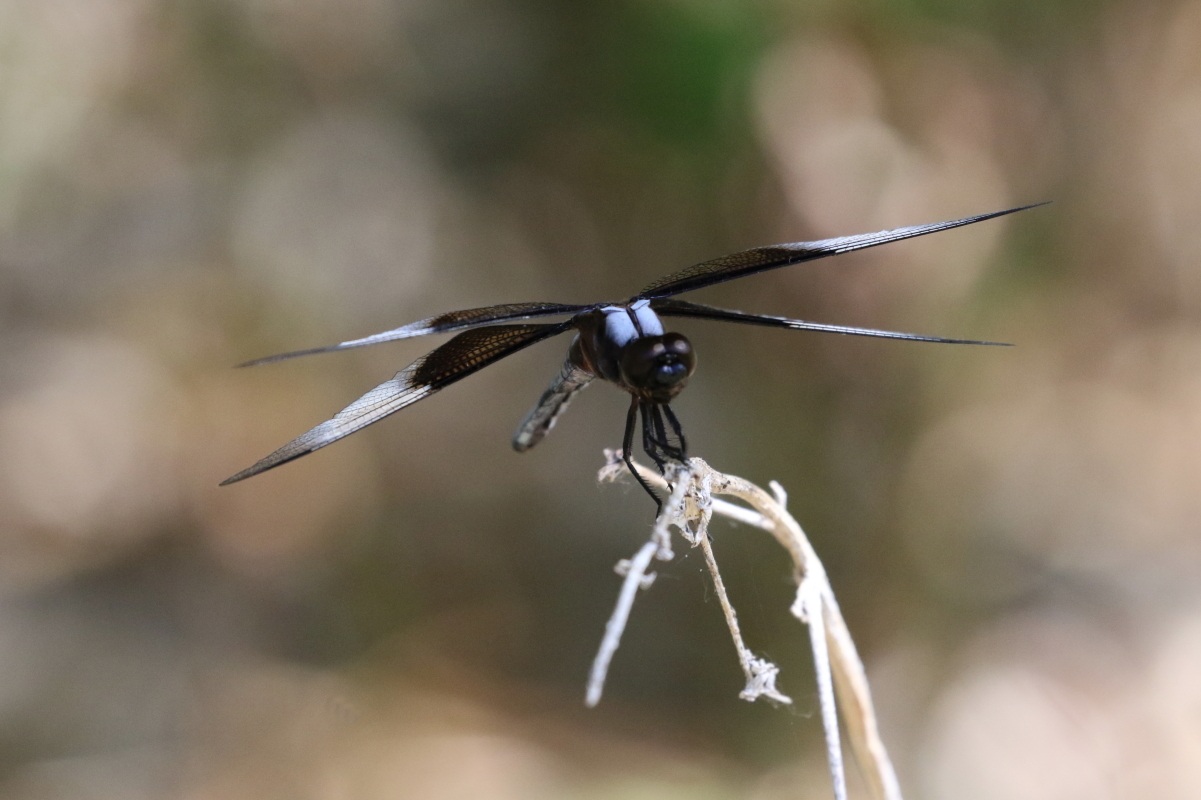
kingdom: Animalia
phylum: Arthropoda
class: Insecta
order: Odonata
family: Libellulidae
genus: Libellula
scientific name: Libellula luctuosa
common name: Widow skimmer
